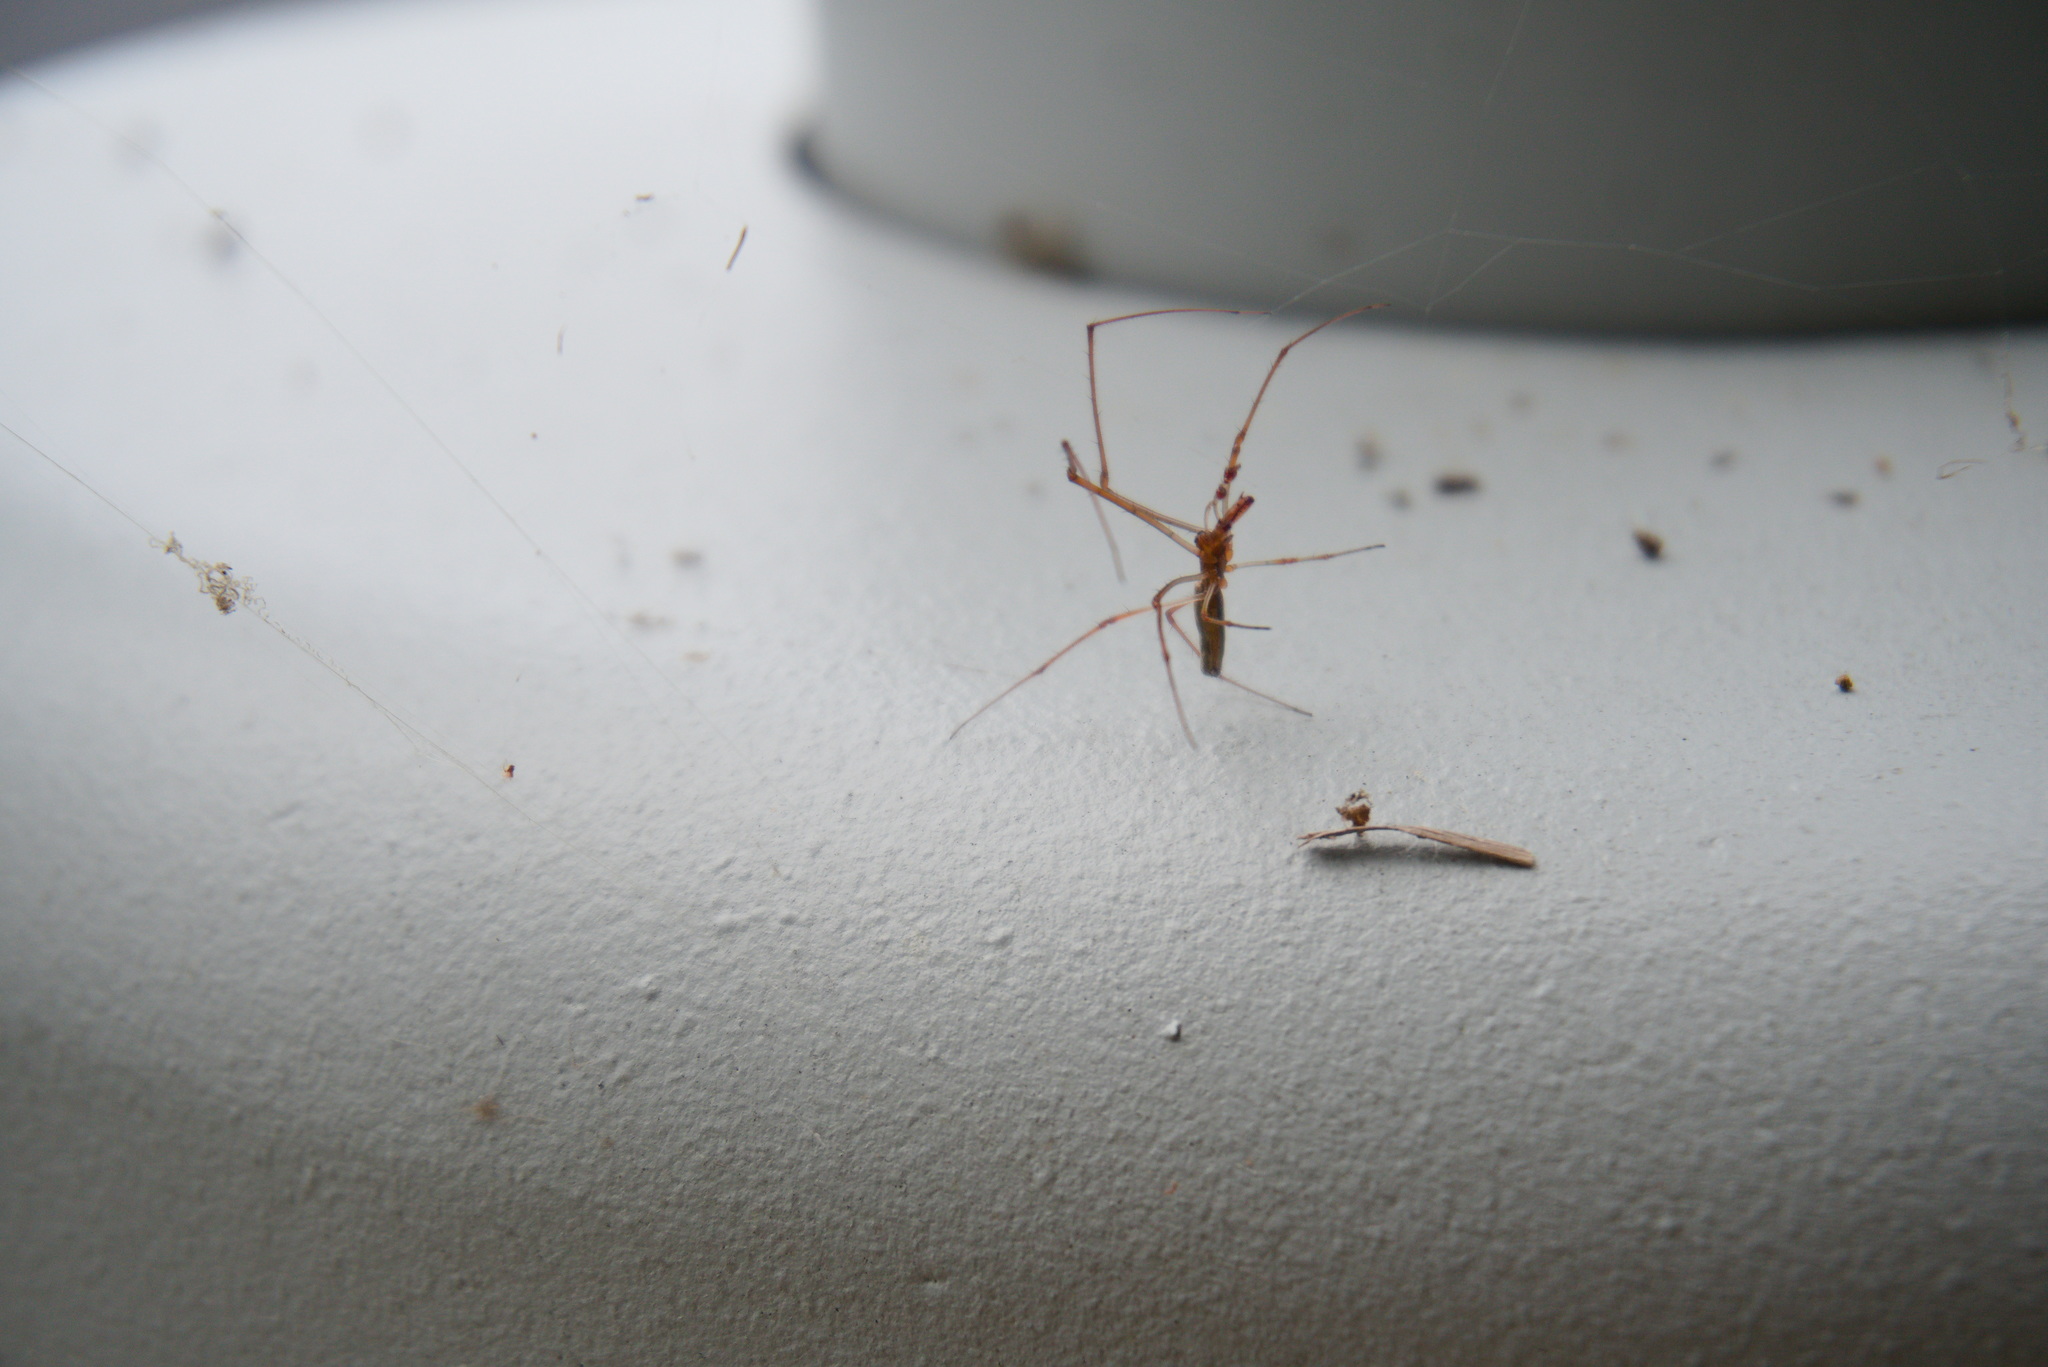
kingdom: Animalia
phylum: Arthropoda
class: Arachnida
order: Araneae
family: Tetragnathidae
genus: Tetragnatha
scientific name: Tetragnatha
